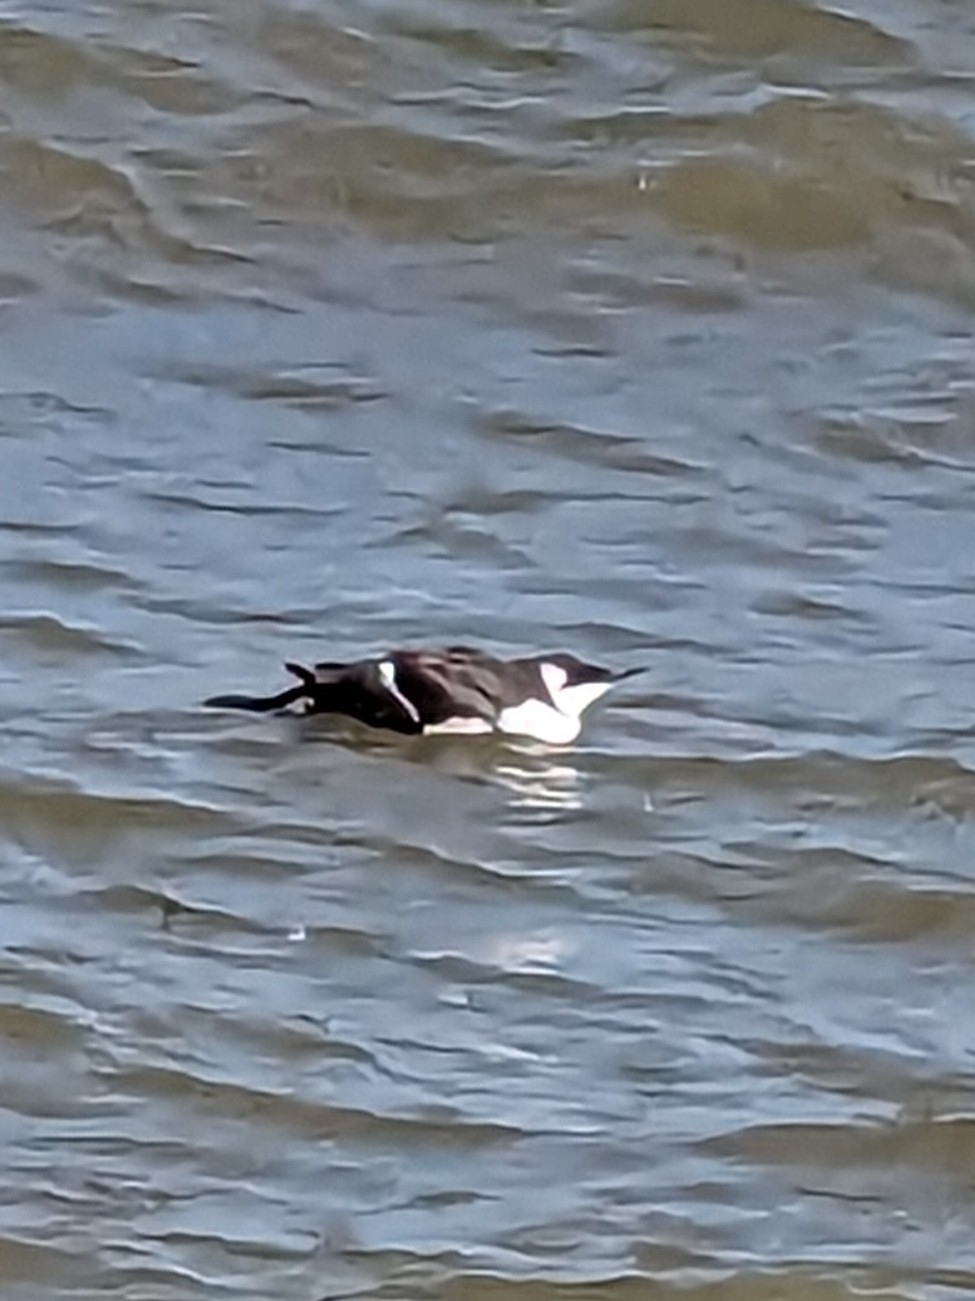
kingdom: Animalia
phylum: Chordata
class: Aves
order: Charadriiformes
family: Alcidae
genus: Uria
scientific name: Uria aalge
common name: Common murre
